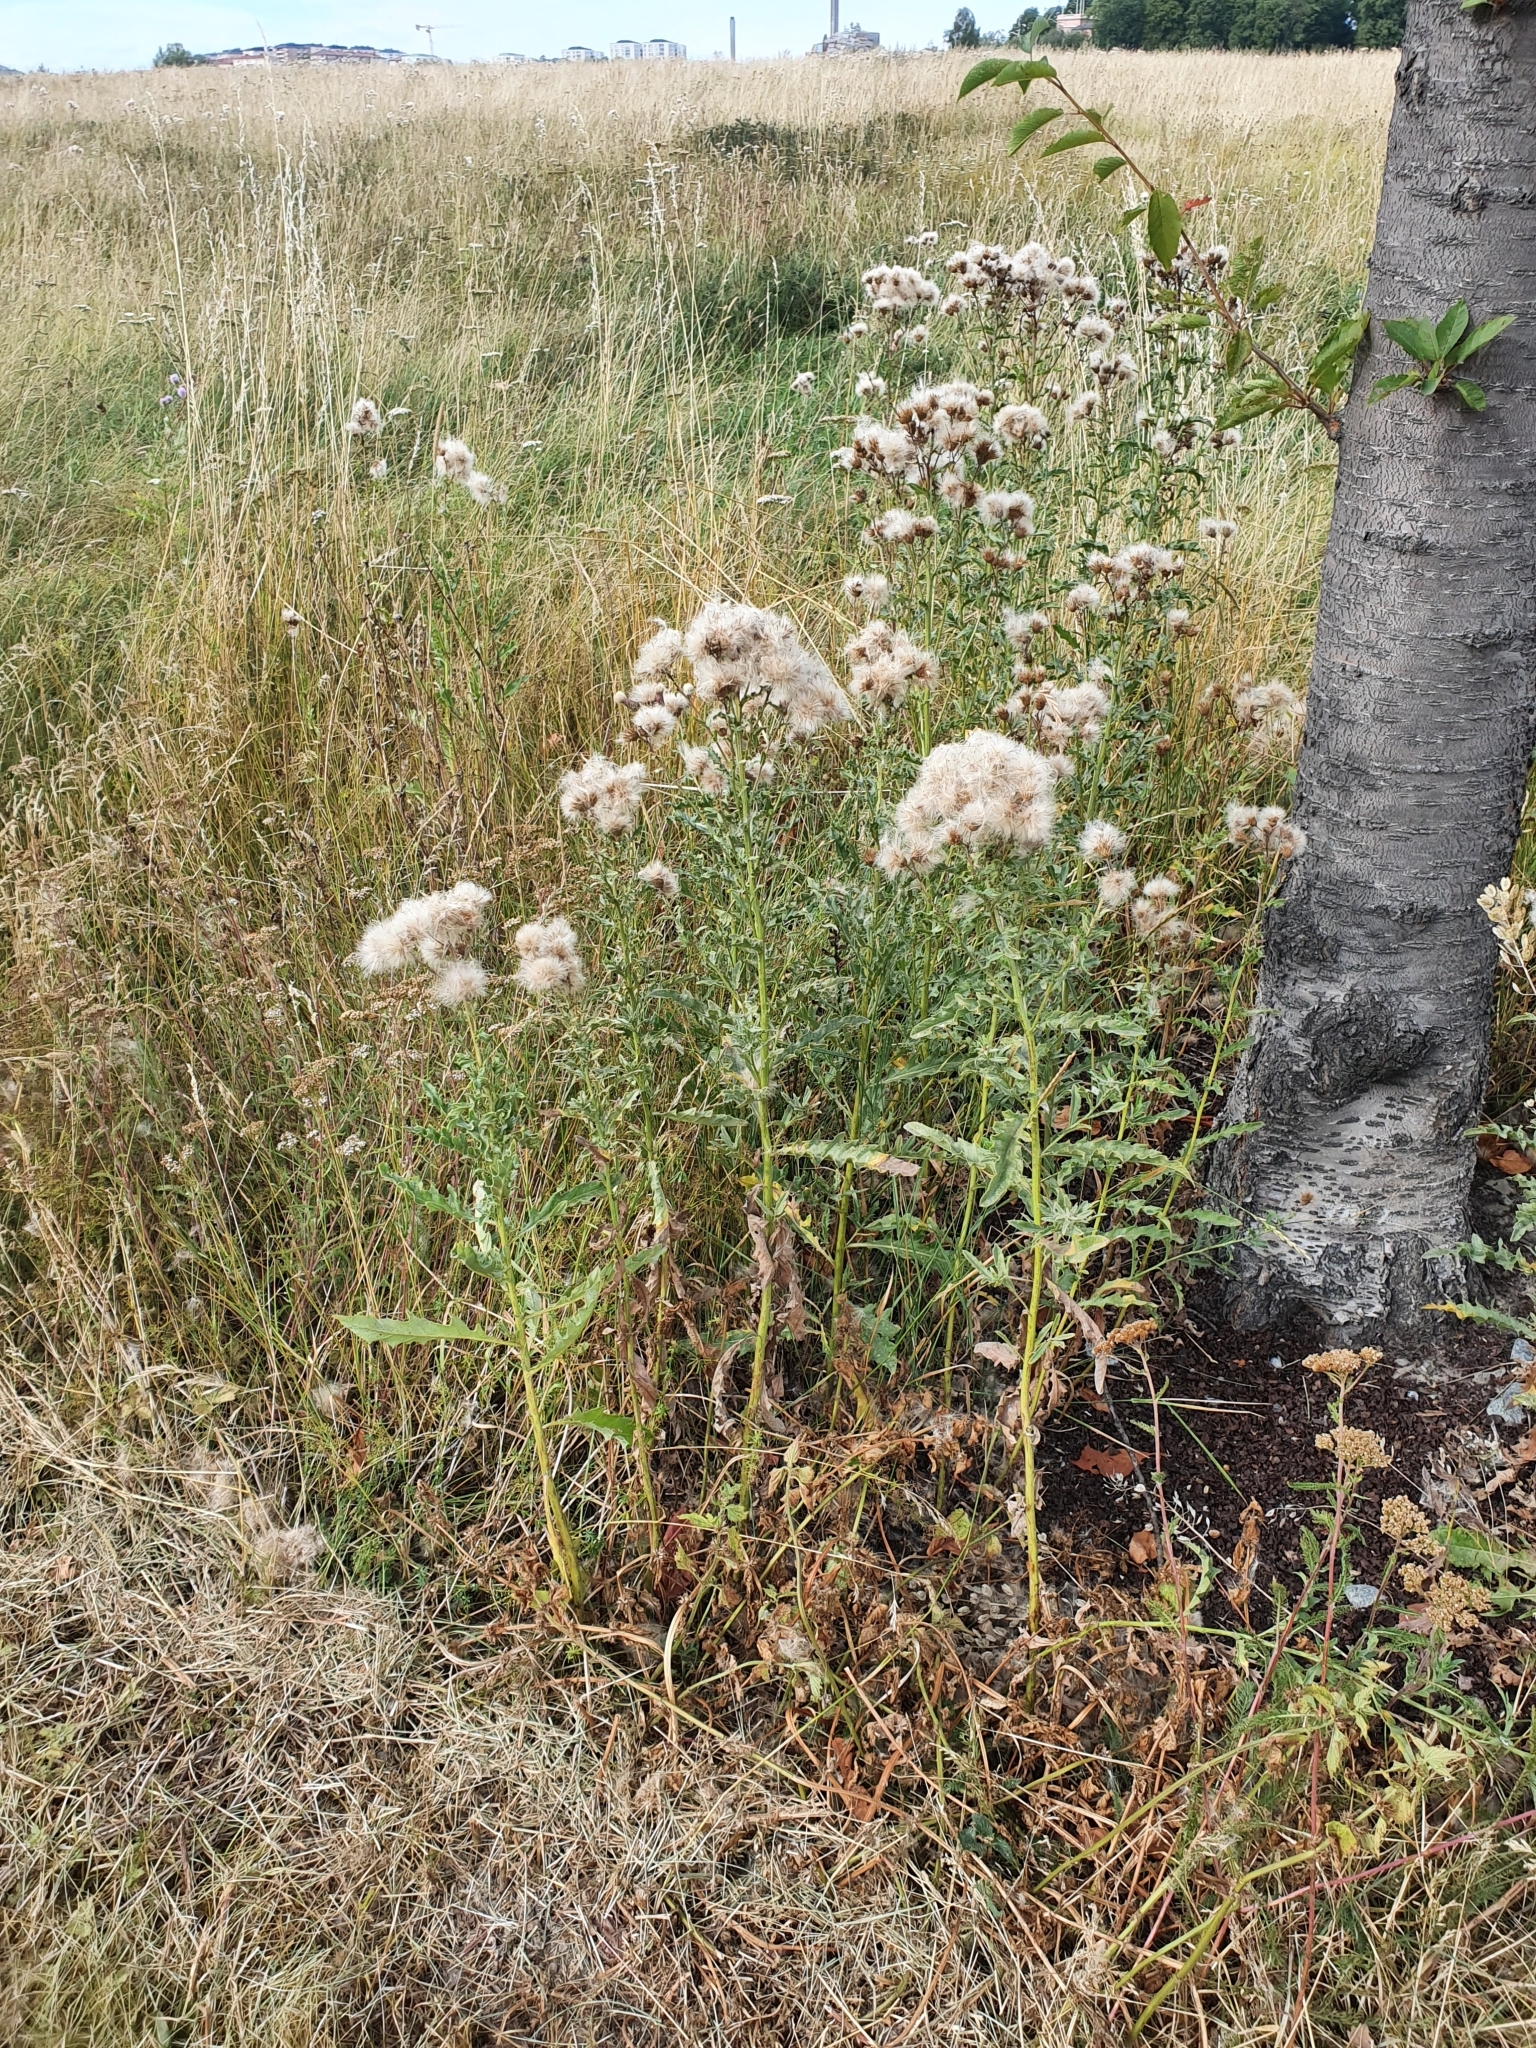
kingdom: Plantae
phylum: Tracheophyta
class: Magnoliopsida
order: Asterales
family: Asteraceae
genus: Cirsium
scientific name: Cirsium arvense
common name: Creeping thistle
